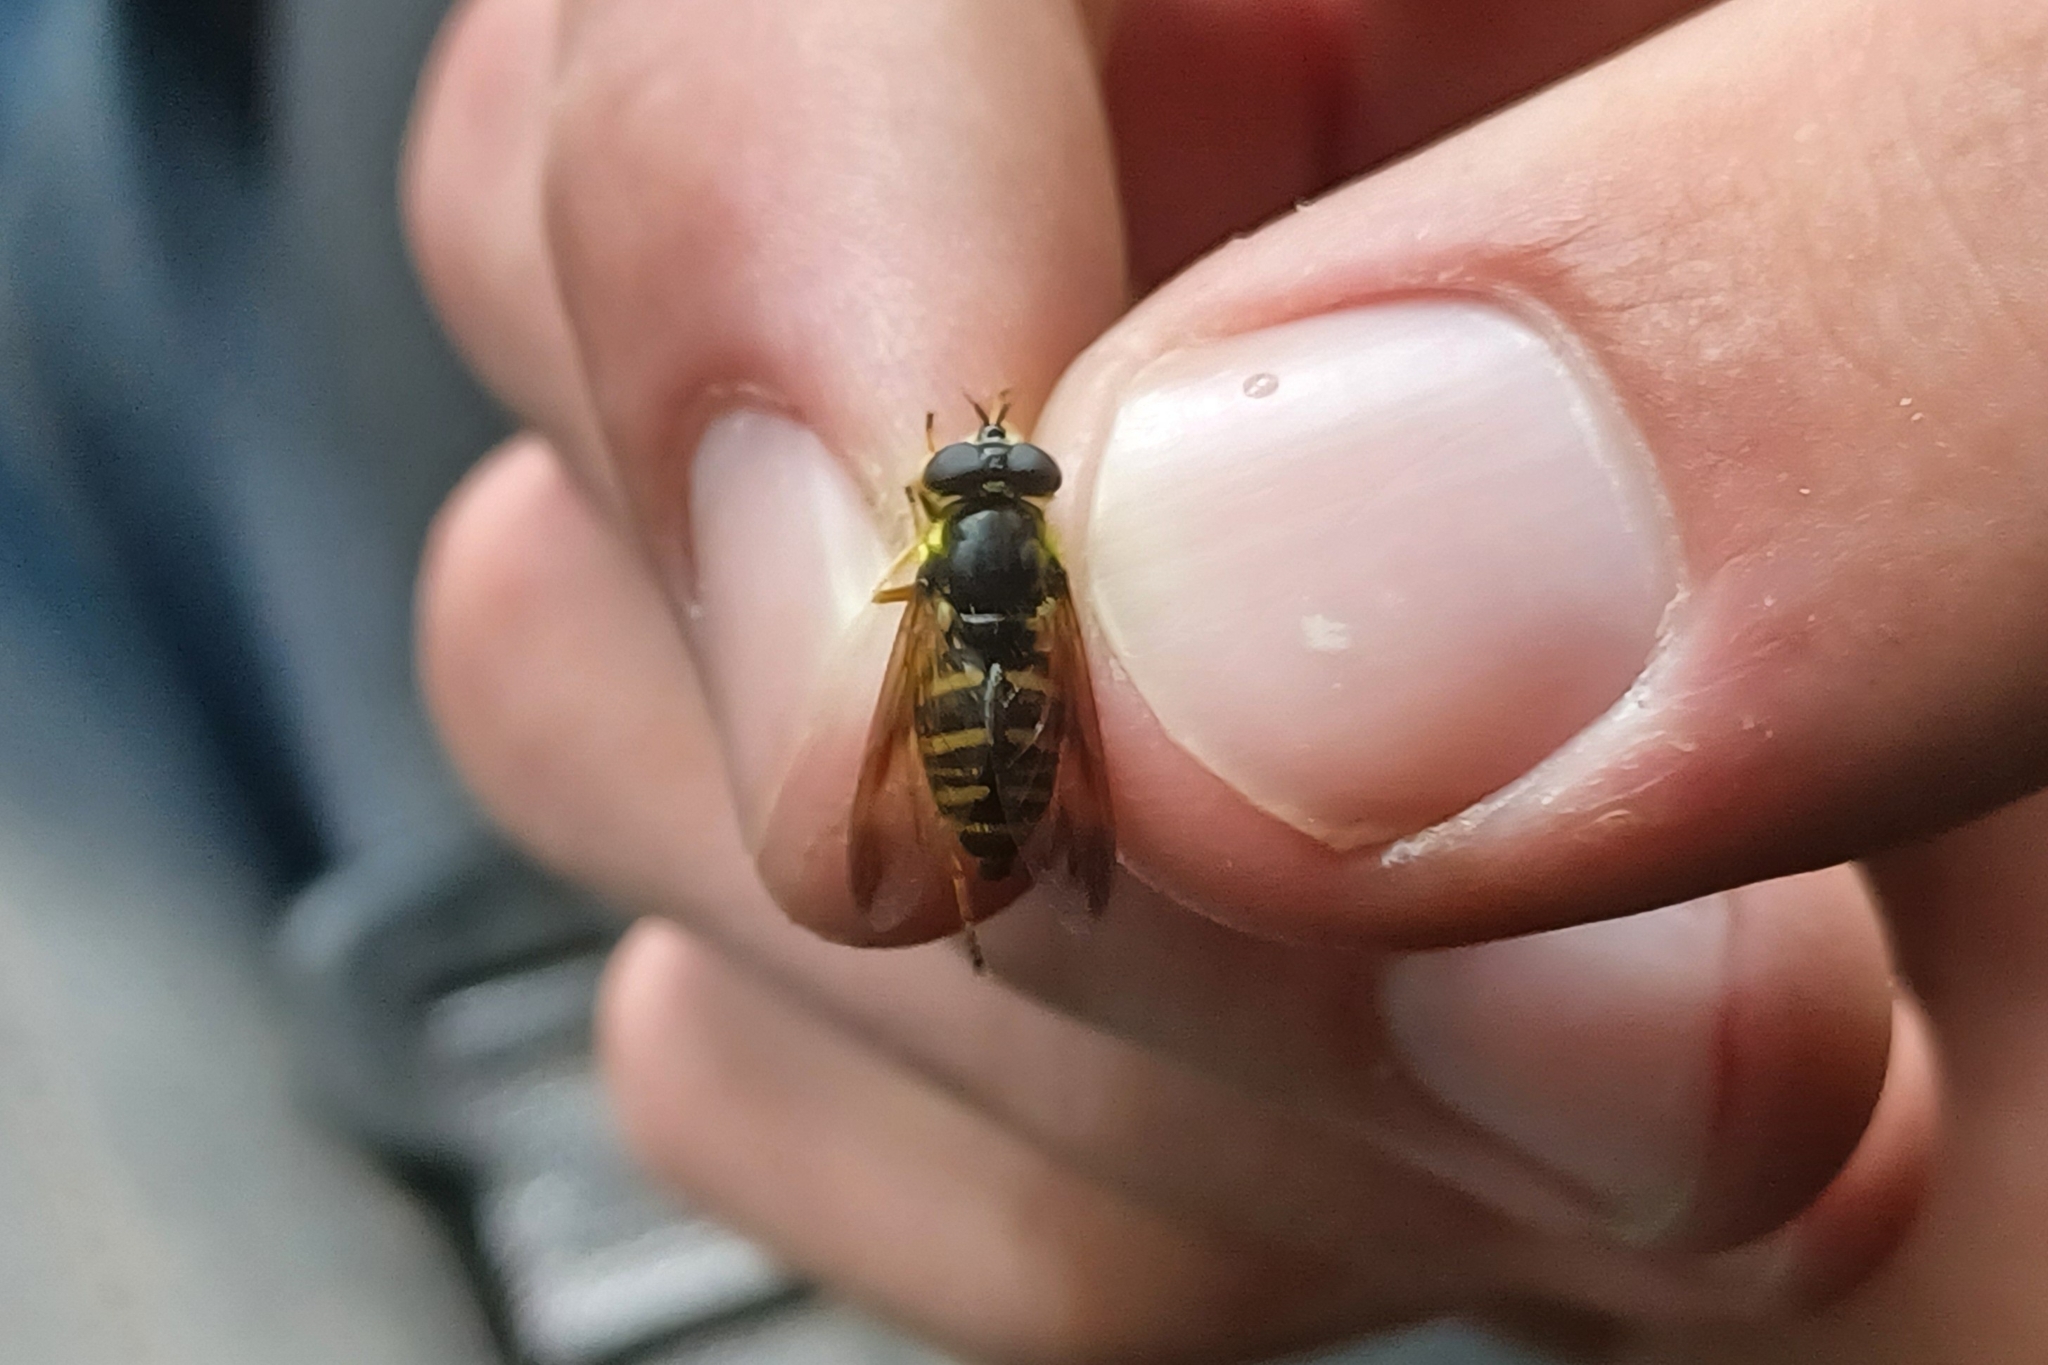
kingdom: Animalia
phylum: Arthropoda
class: Insecta
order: Diptera
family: Syrphidae
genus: Sericomyia
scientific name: Sericomyia chrysotoxoides
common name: Oblique-banded pond fly
